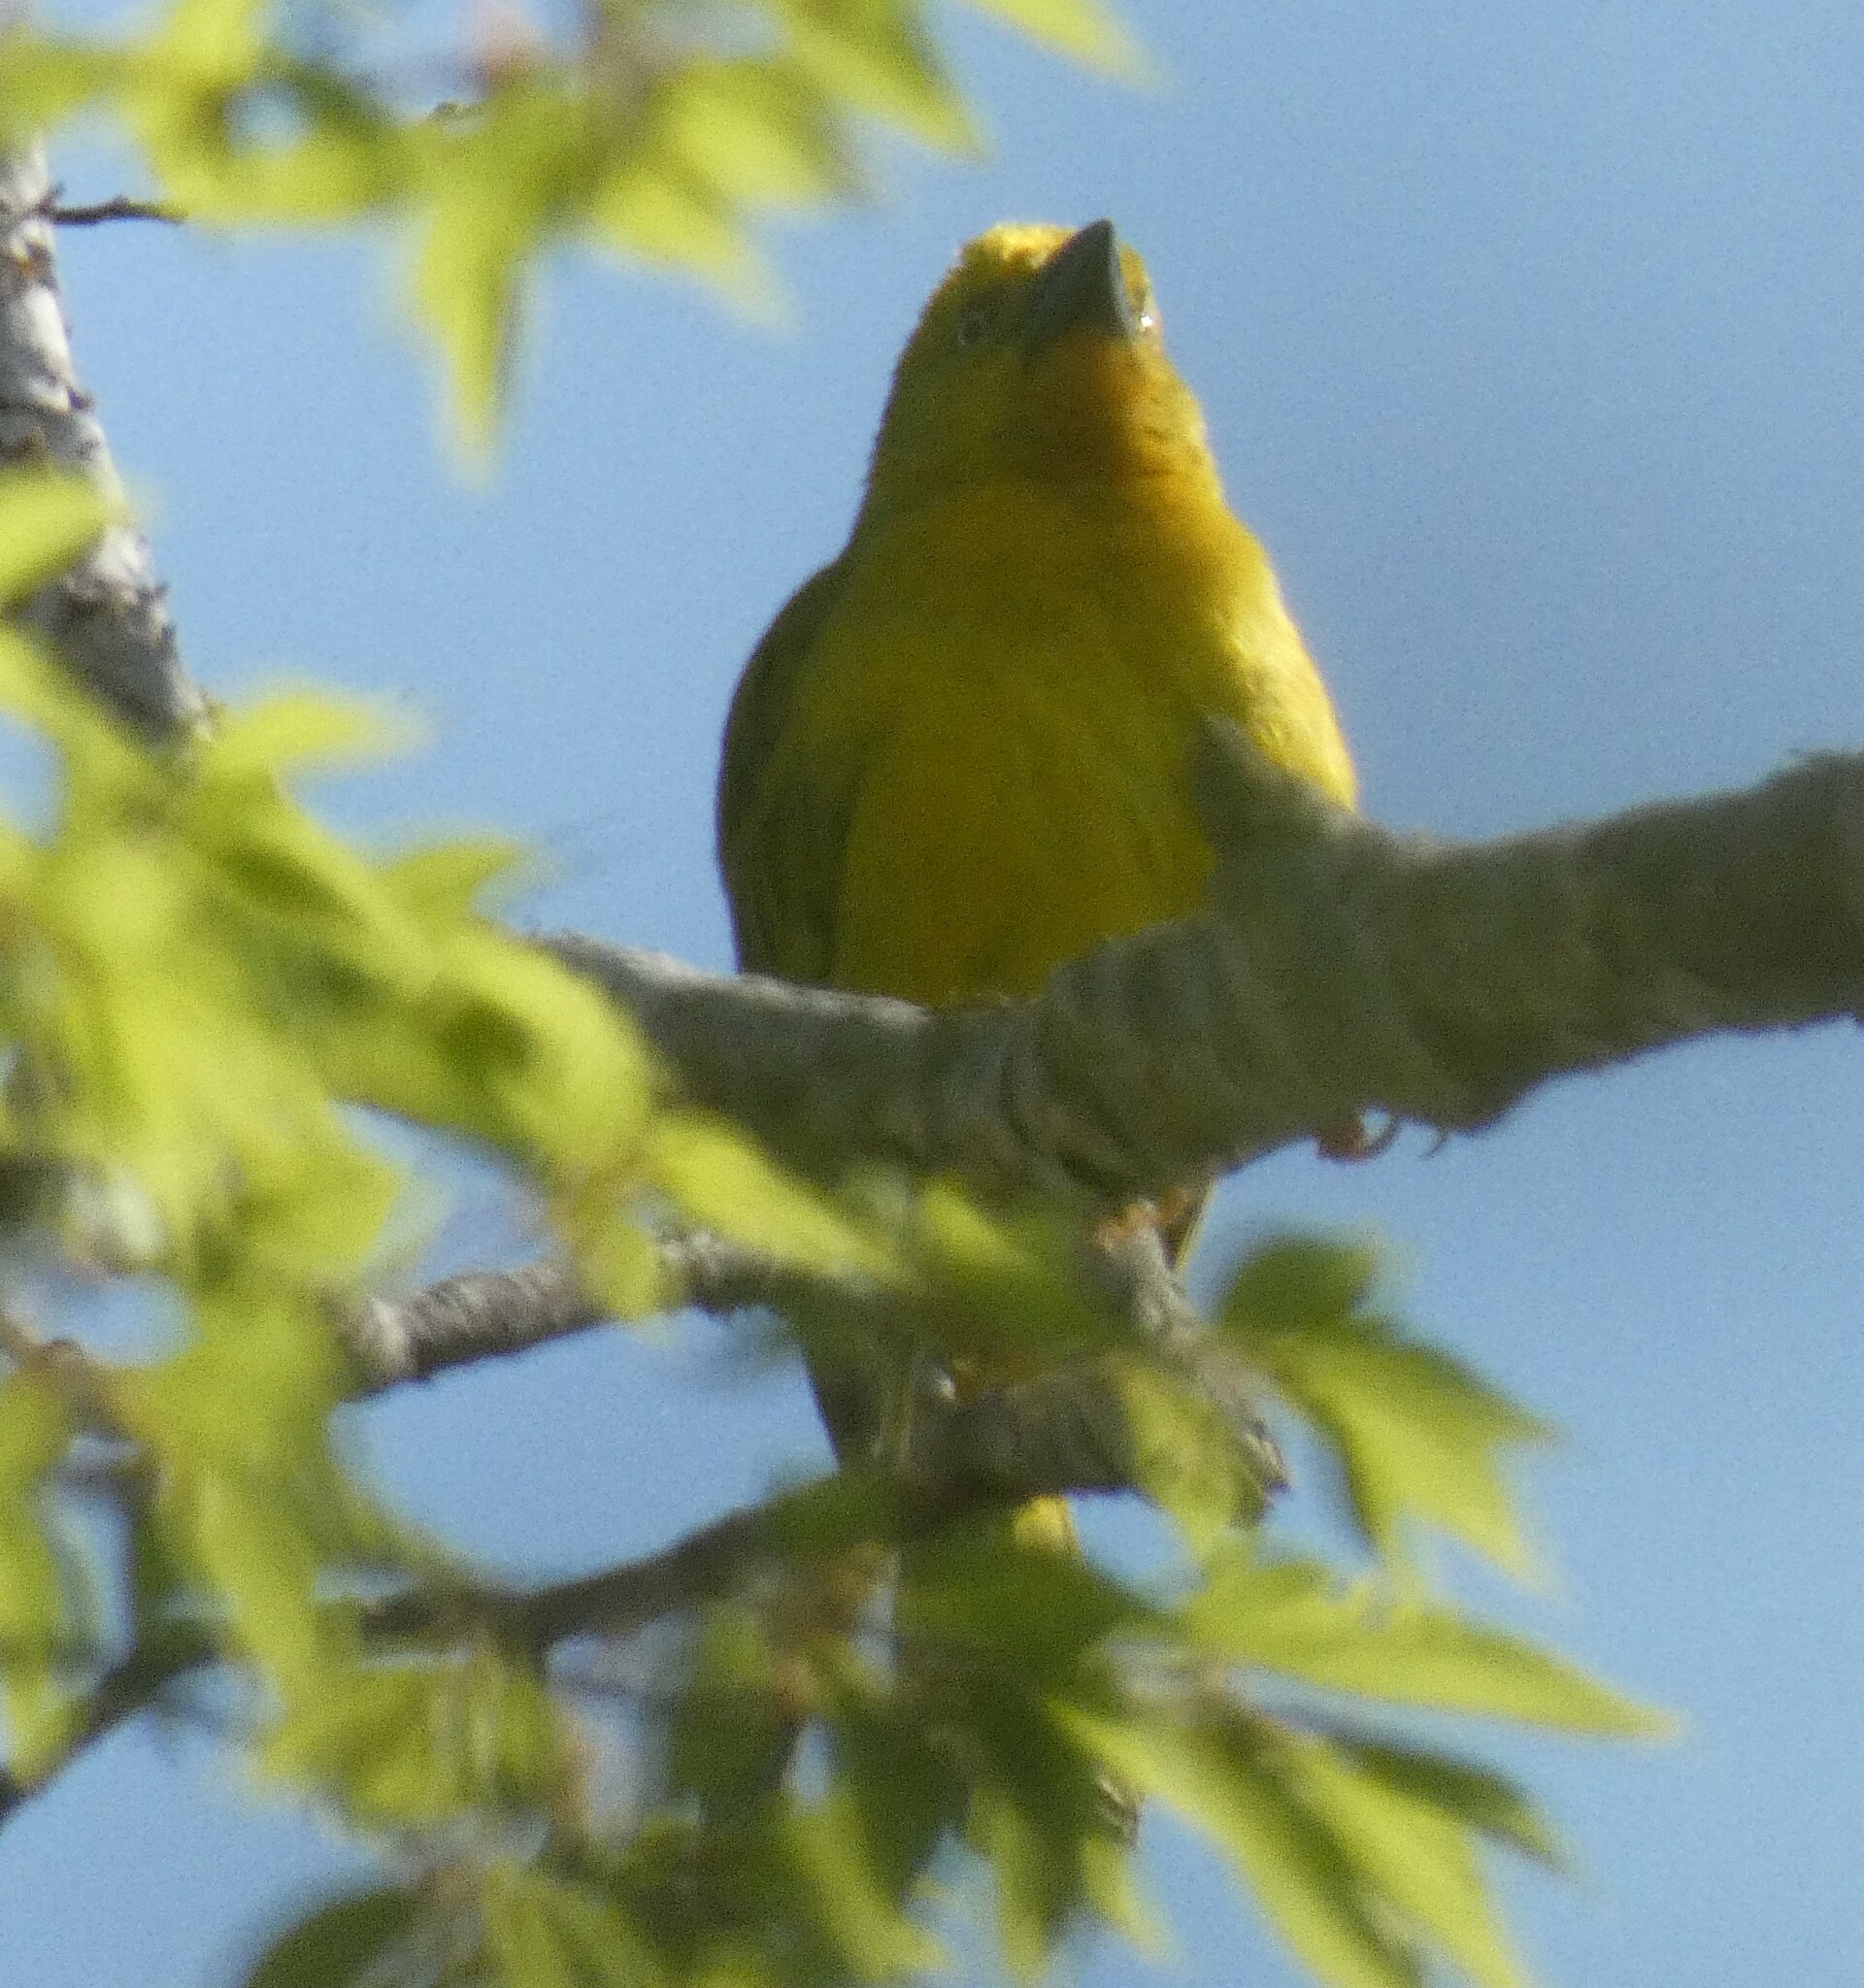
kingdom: Animalia
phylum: Chordata
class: Aves
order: Passeriformes
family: Ploceidae
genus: Ploceus
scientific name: Ploceus xanthops
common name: Holub's golden weaver
